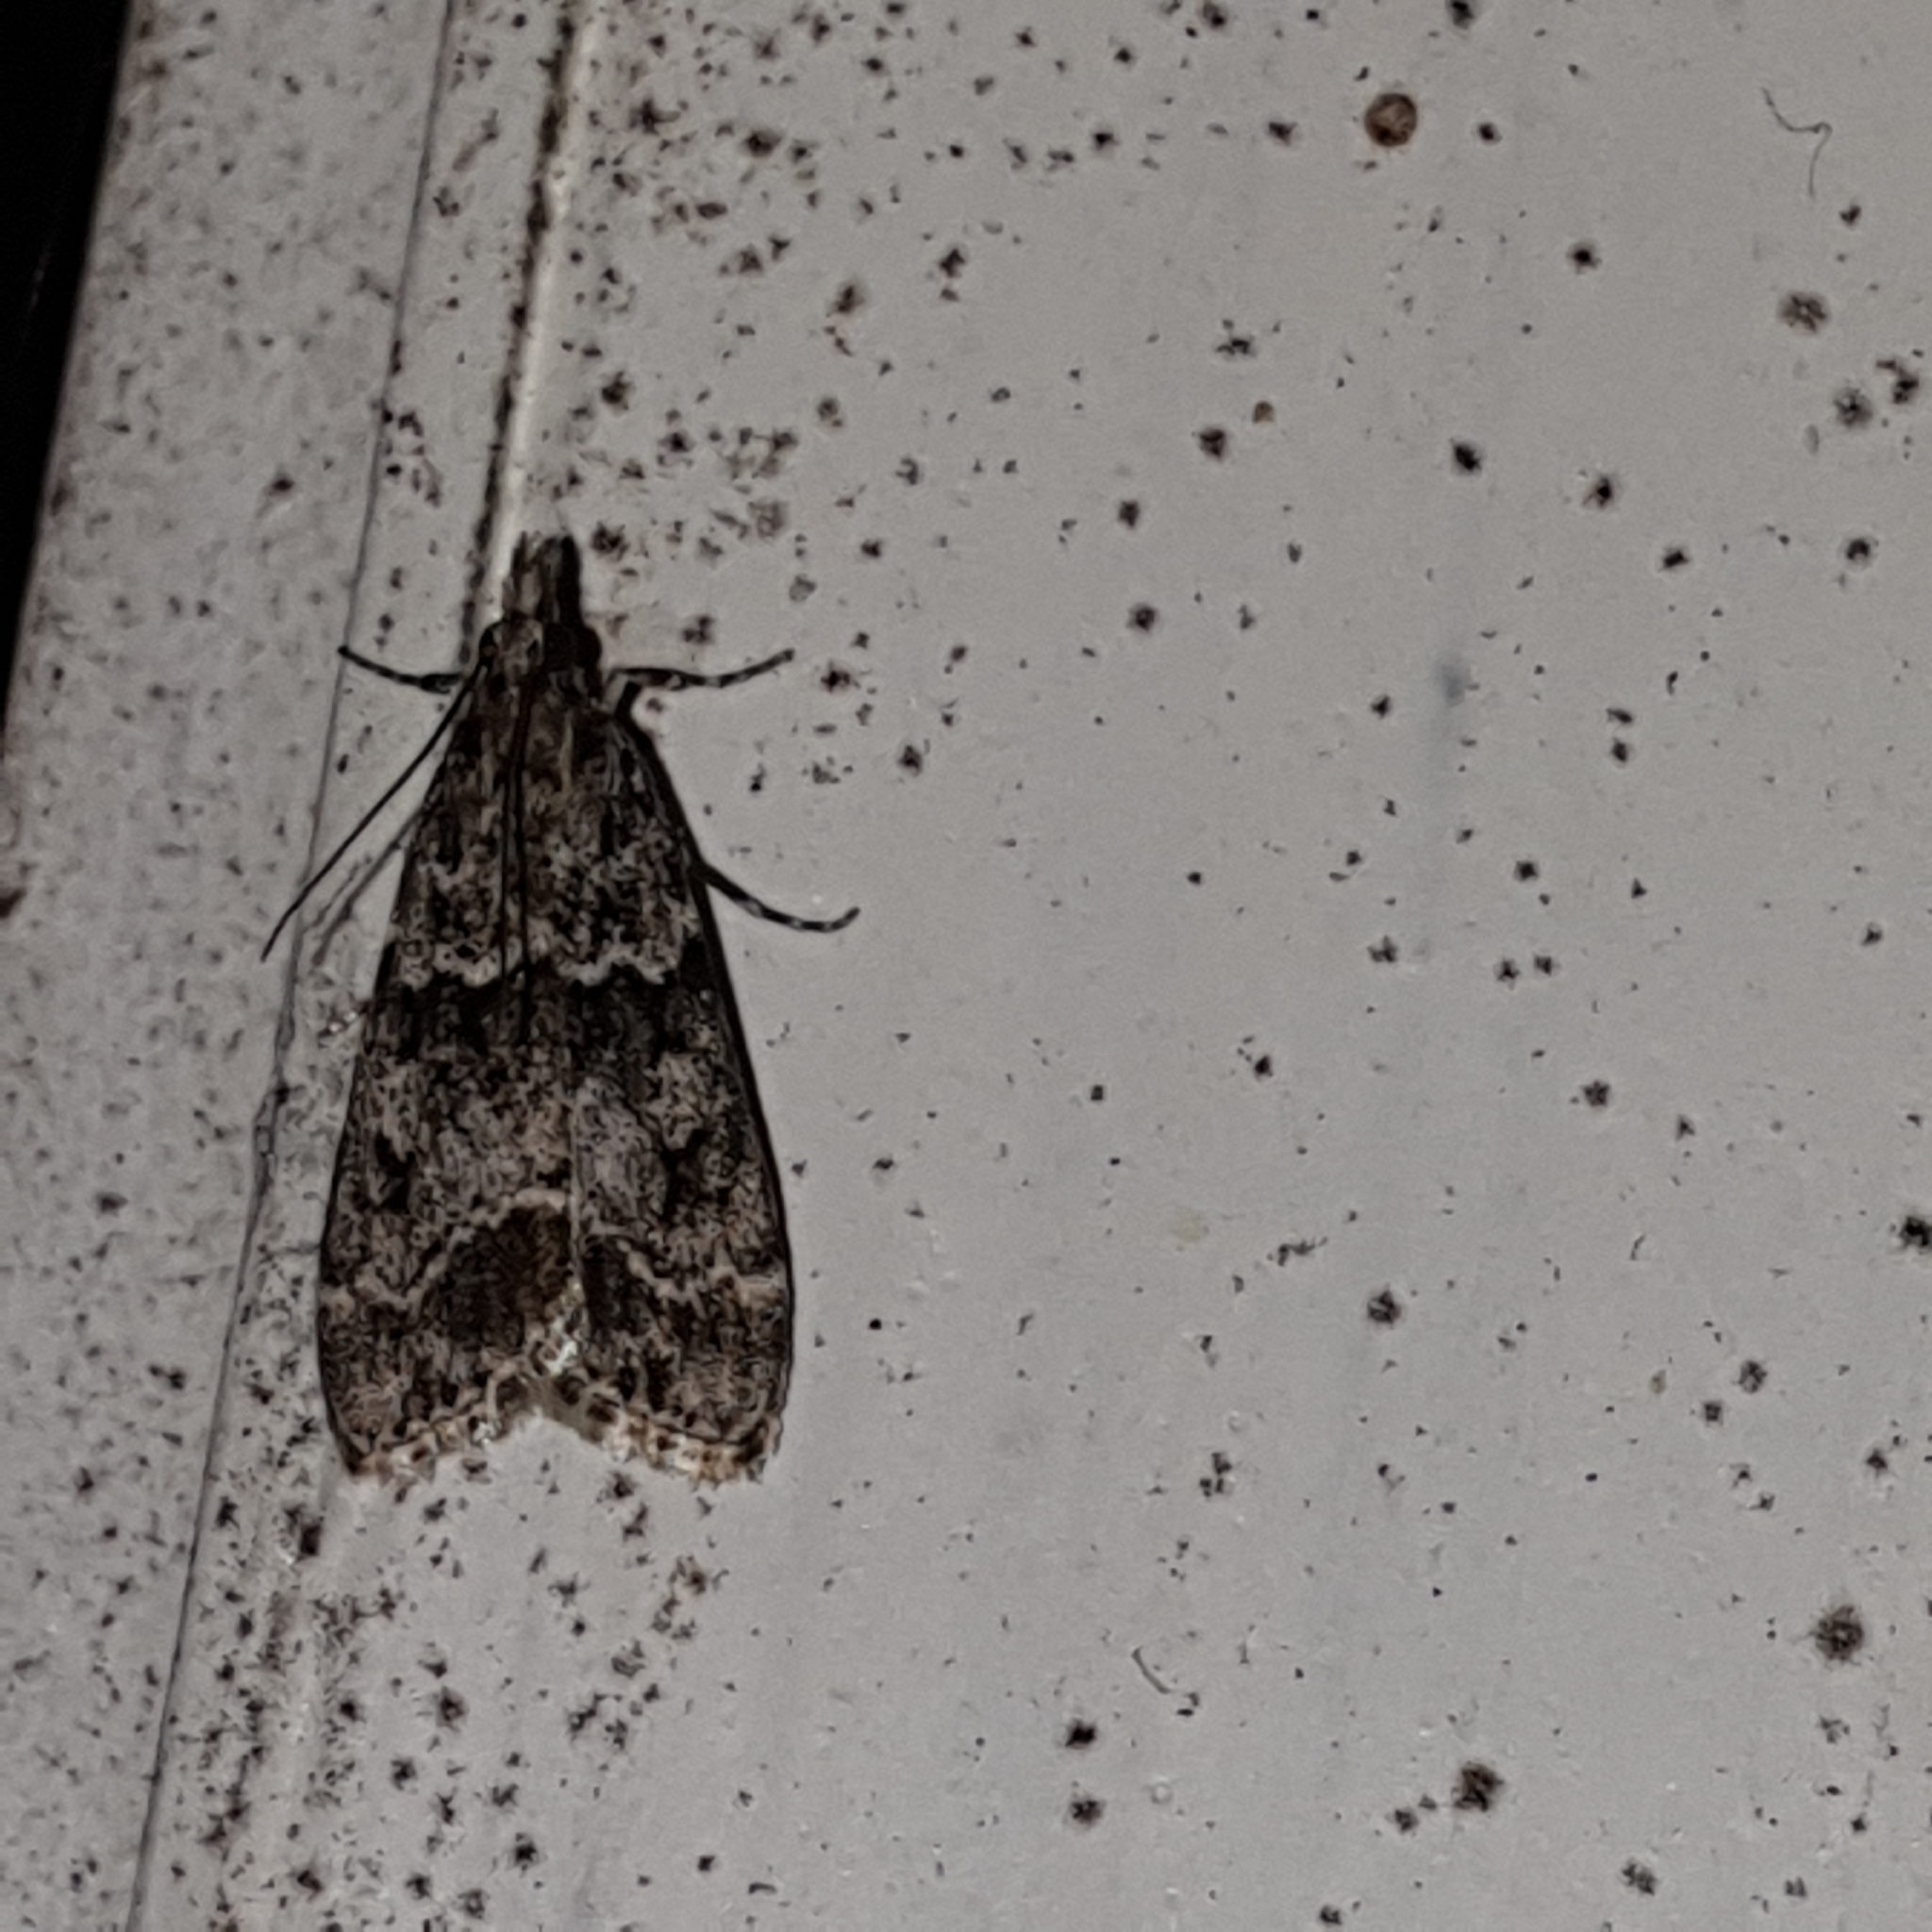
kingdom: Animalia
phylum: Arthropoda
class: Insecta
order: Lepidoptera
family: Crambidae
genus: Eudonia
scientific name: Eudonia mercurella
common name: Small grey
